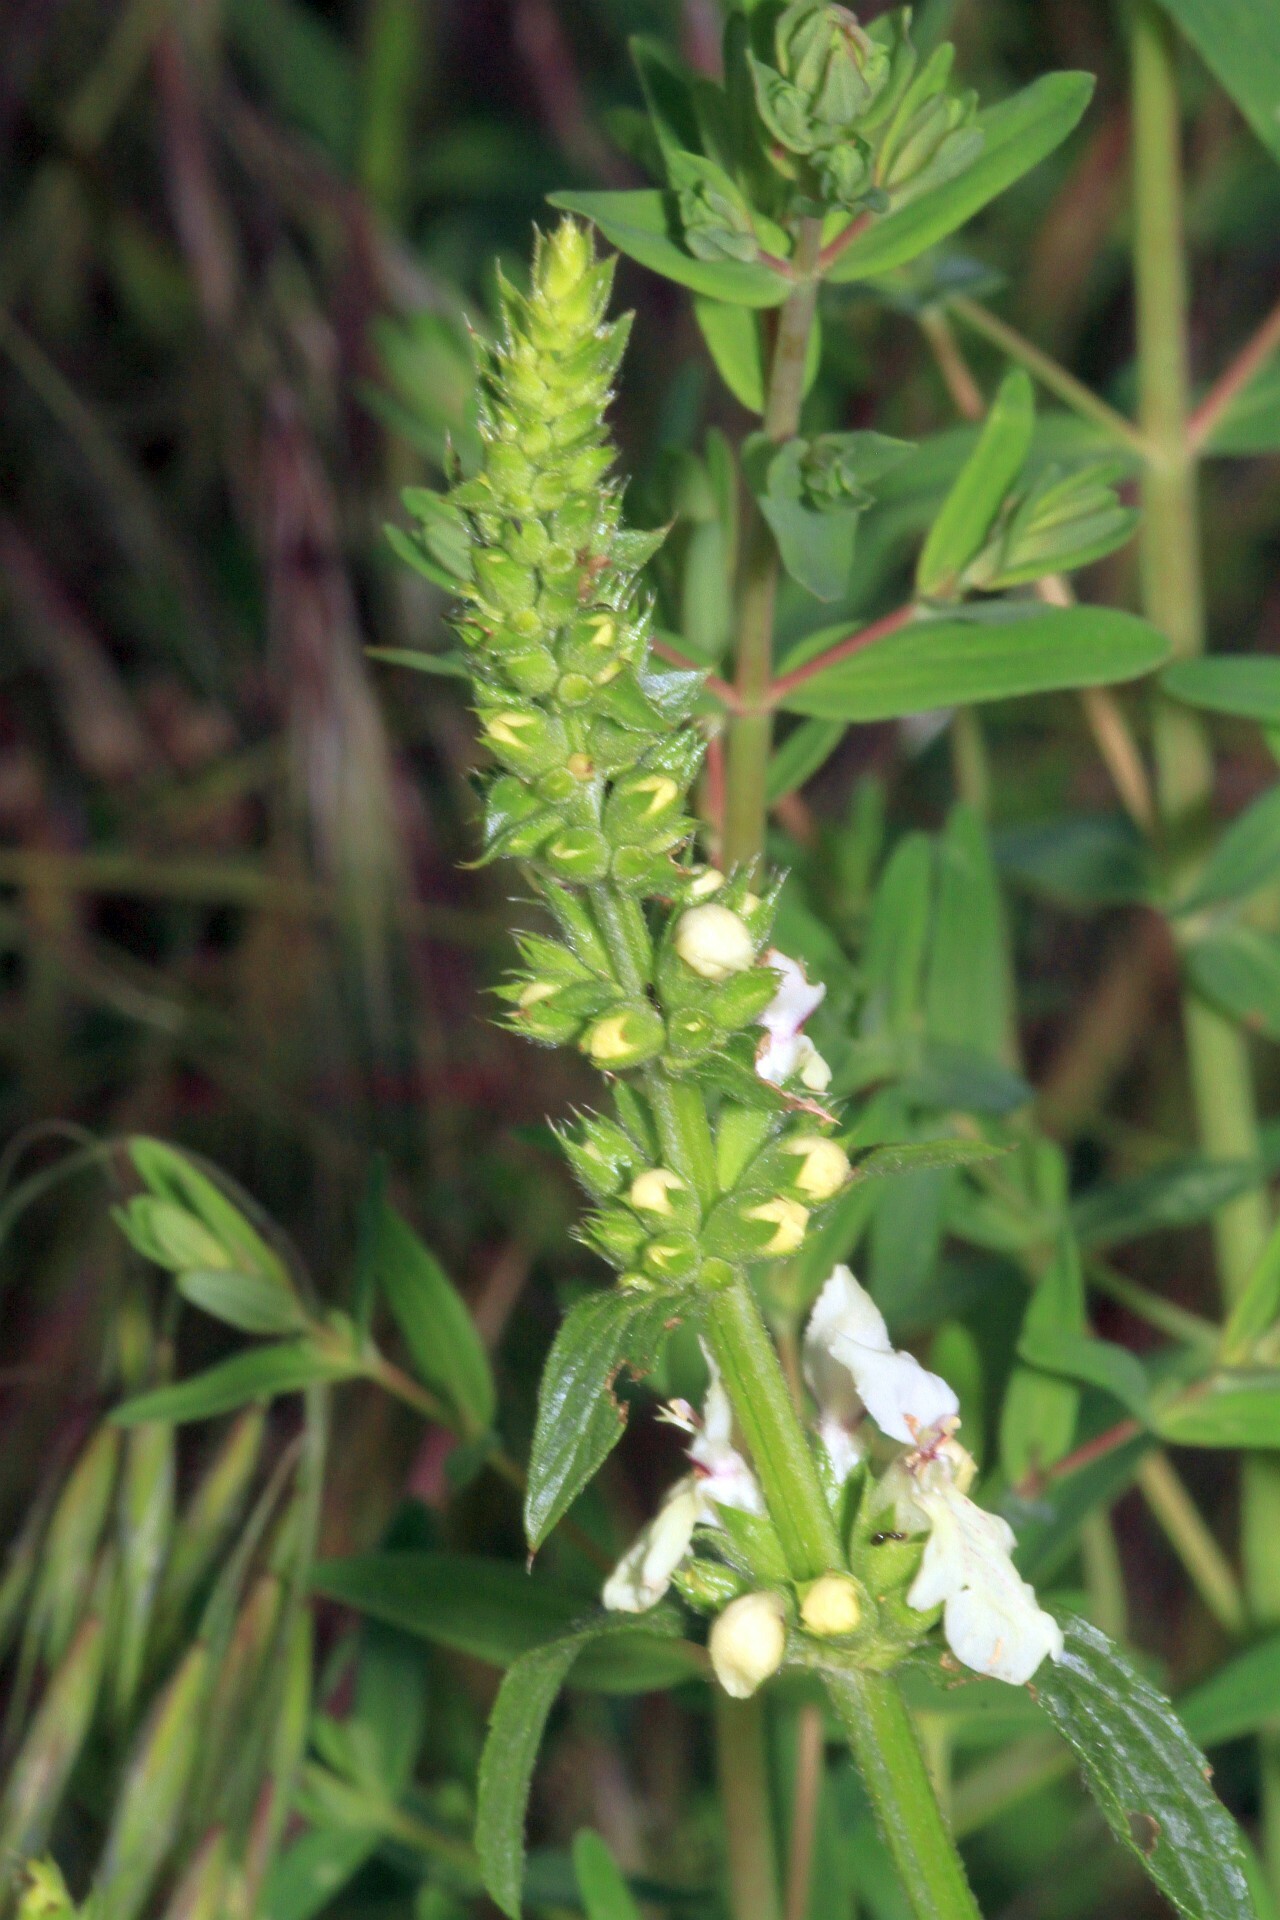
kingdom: Plantae
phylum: Tracheophyta
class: Magnoliopsida
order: Lamiales
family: Lamiaceae
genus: Stachys
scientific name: Stachys recta
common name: Perennial yellow-woundwort
